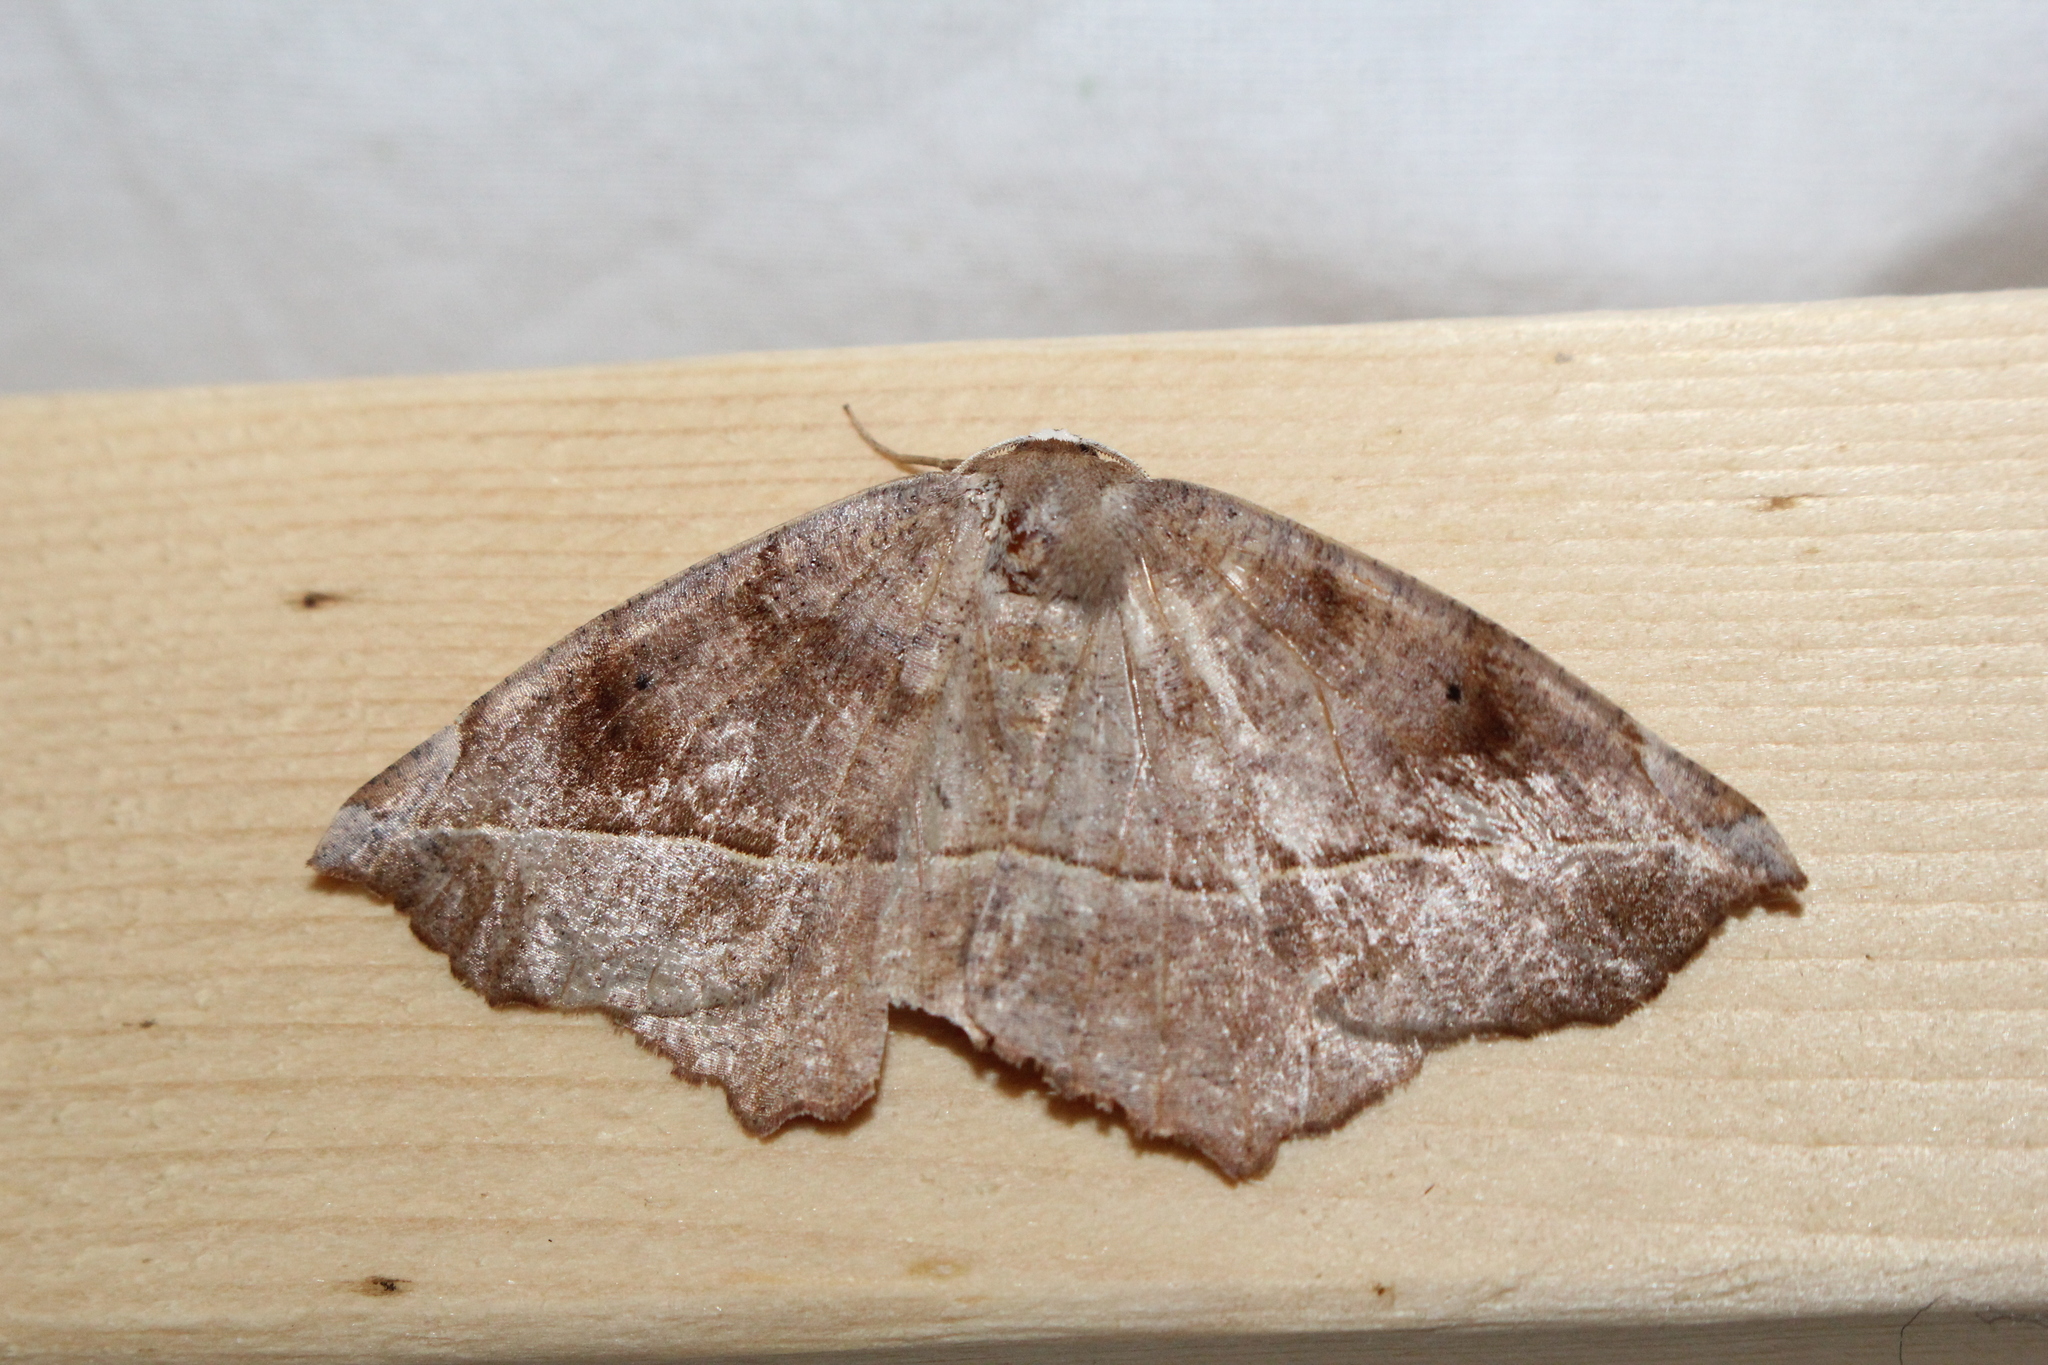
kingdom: Animalia
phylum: Arthropoda
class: Insecta
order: Lepidoptera
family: Geometridae
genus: Eutrapela
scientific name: Eutrapela clemataria
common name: Curved-toothed geometer
